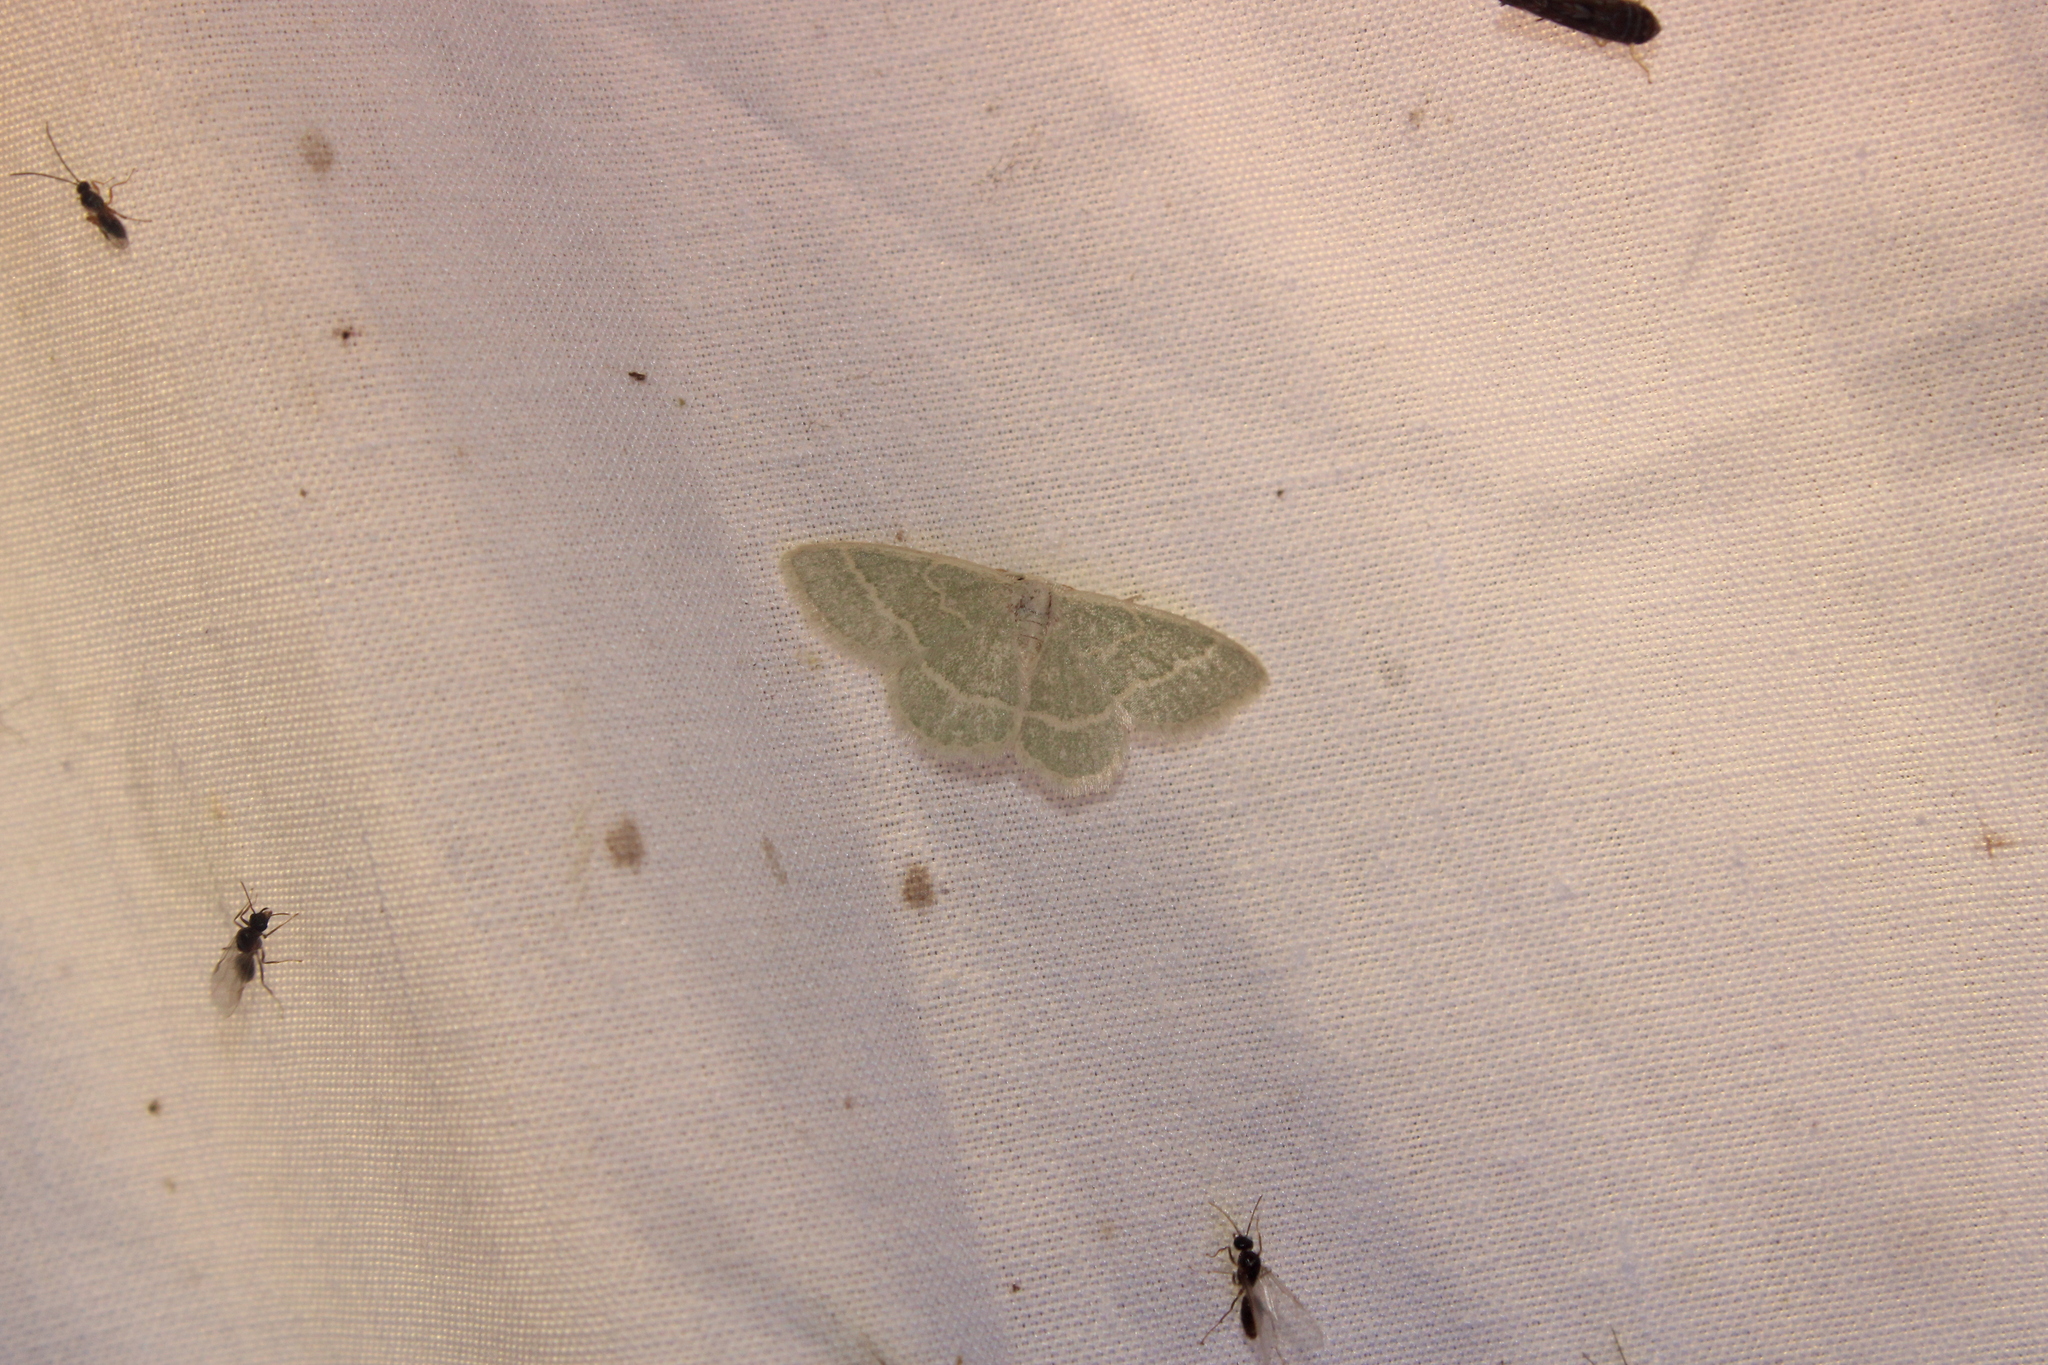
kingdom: Animalia
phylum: Arthropoda
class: Insecta
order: Lepidoptera
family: Geometridae
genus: Chlorochlamys
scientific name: Chlorochlamys chloroleucaria
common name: Blackberry looper
